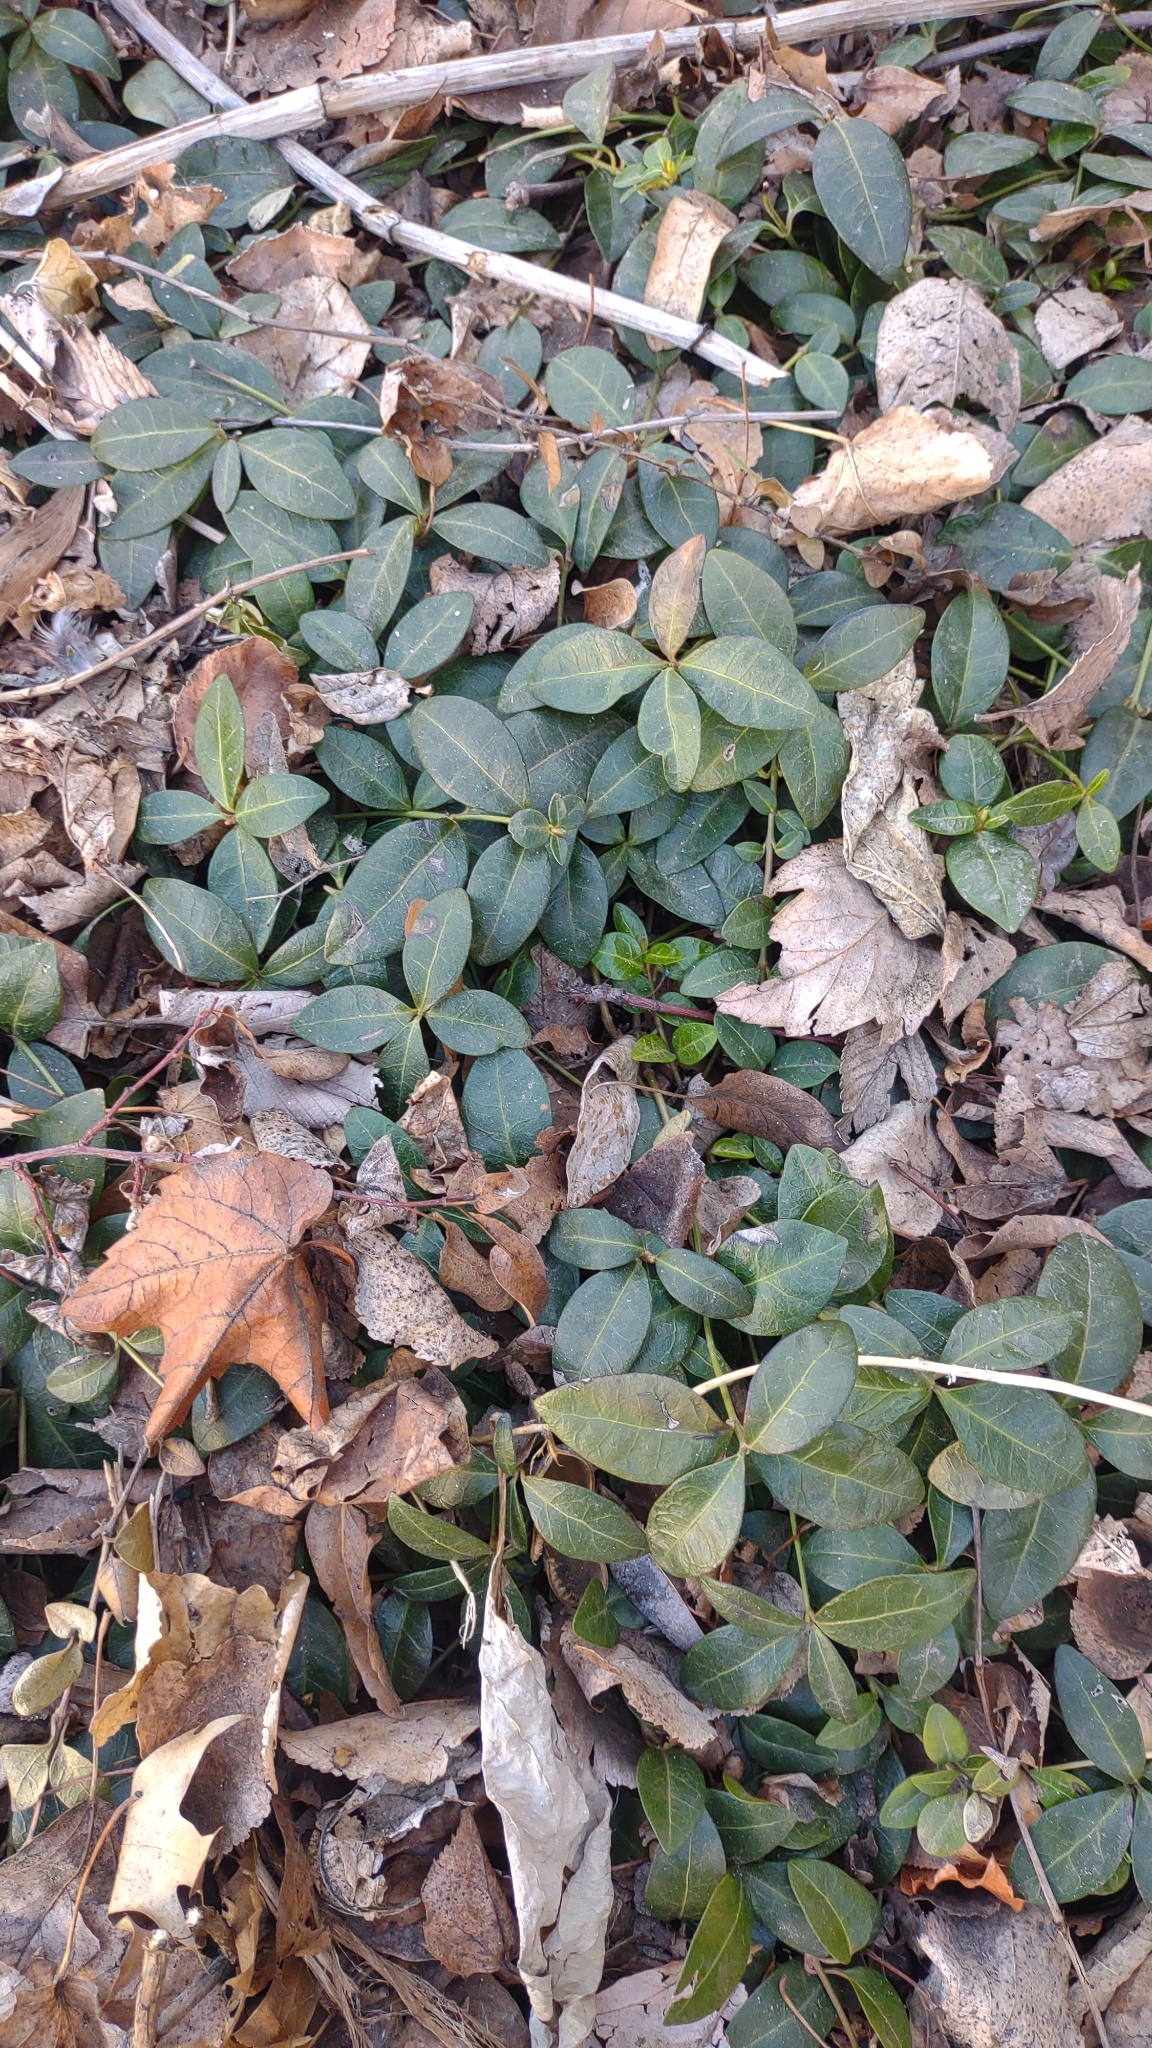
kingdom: Plantae
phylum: Tracheophyta
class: Magnoliopsida
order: Gentianales
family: Apocynaceae
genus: Vinca
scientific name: Vinca minor
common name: Lesser periwinkle
